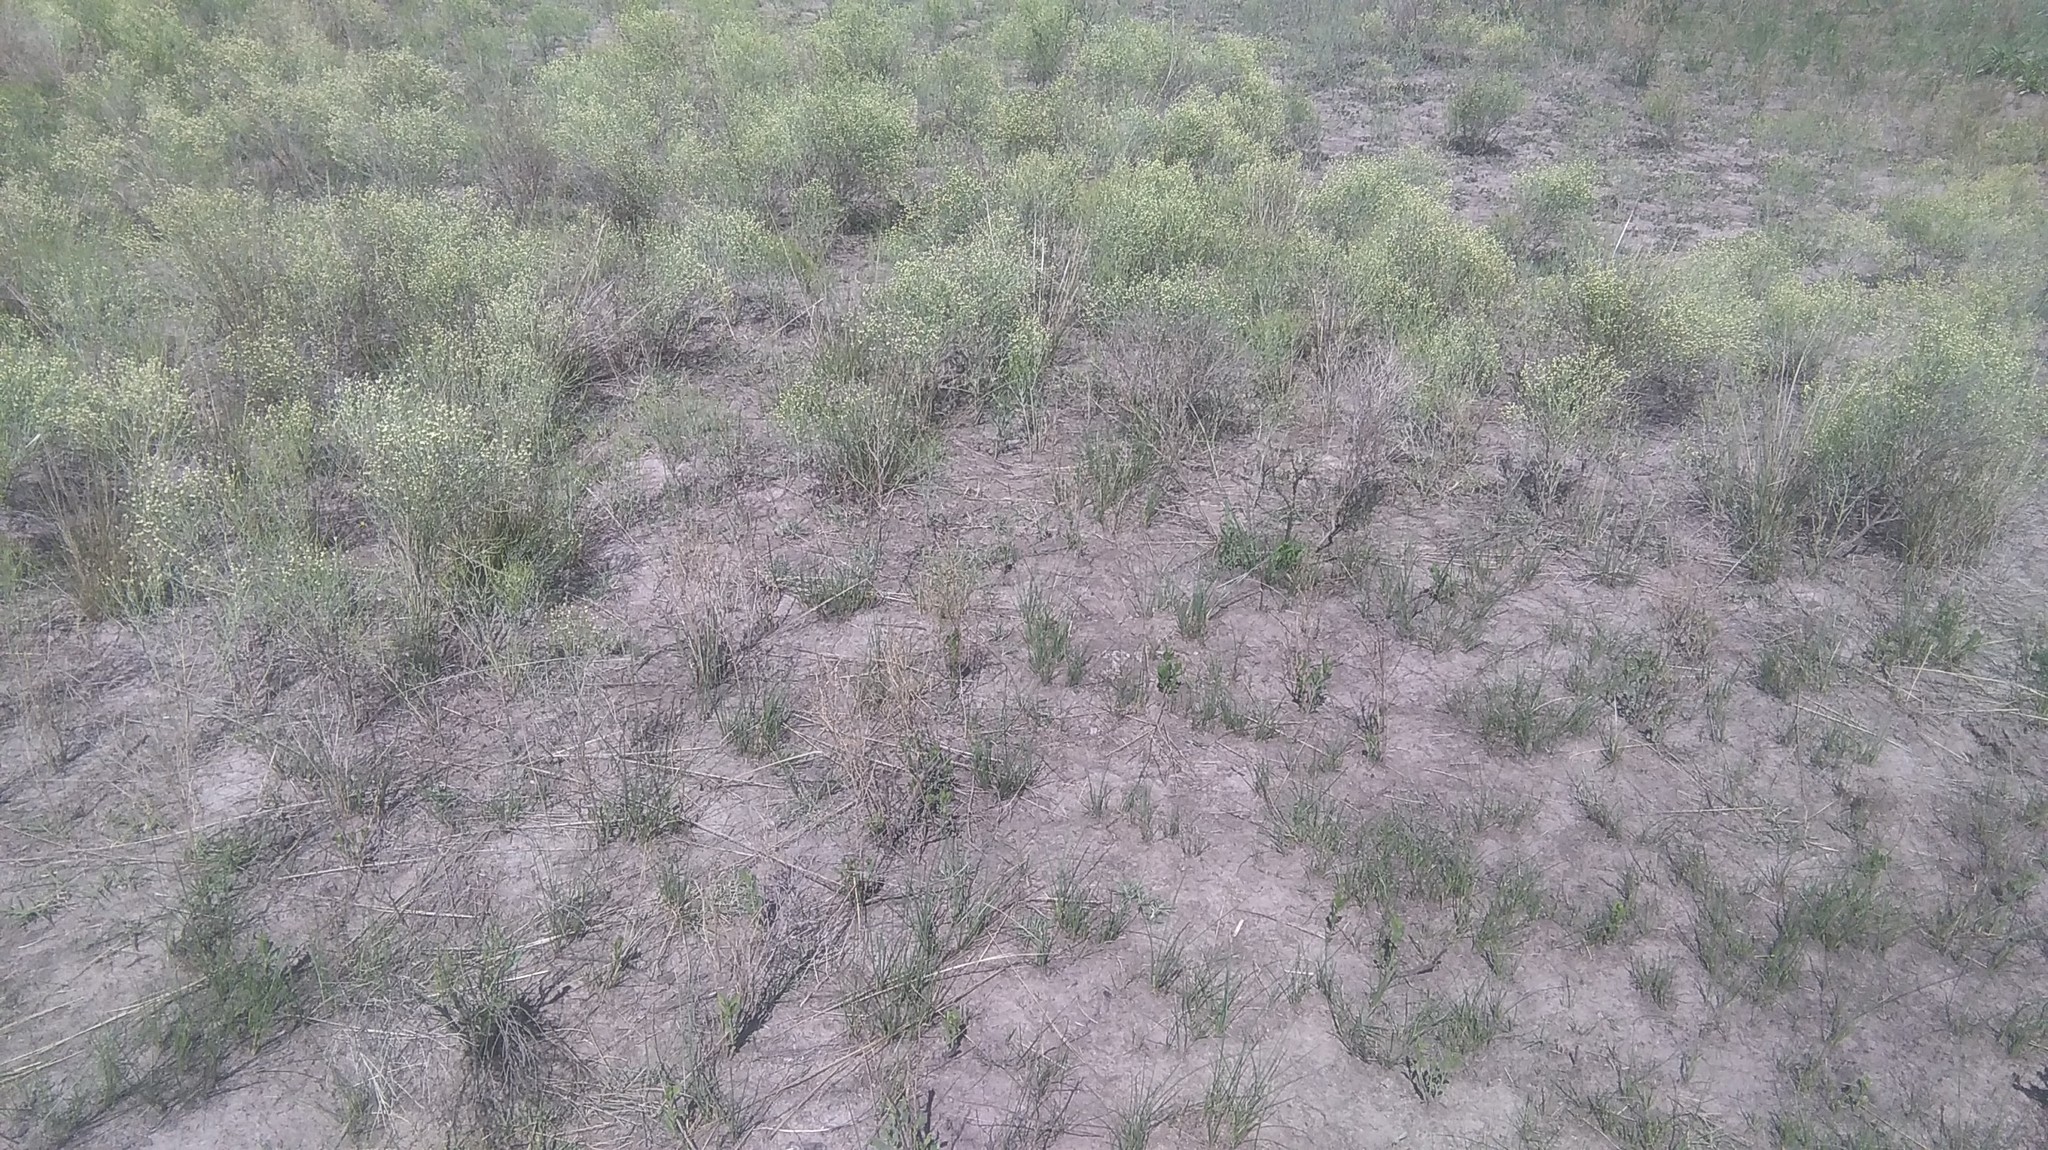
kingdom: Plantae
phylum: Tracheophyta
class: Magnoliopsida
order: Asterales
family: Asteraceae
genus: Baccharis
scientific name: Baccharis notosergila
